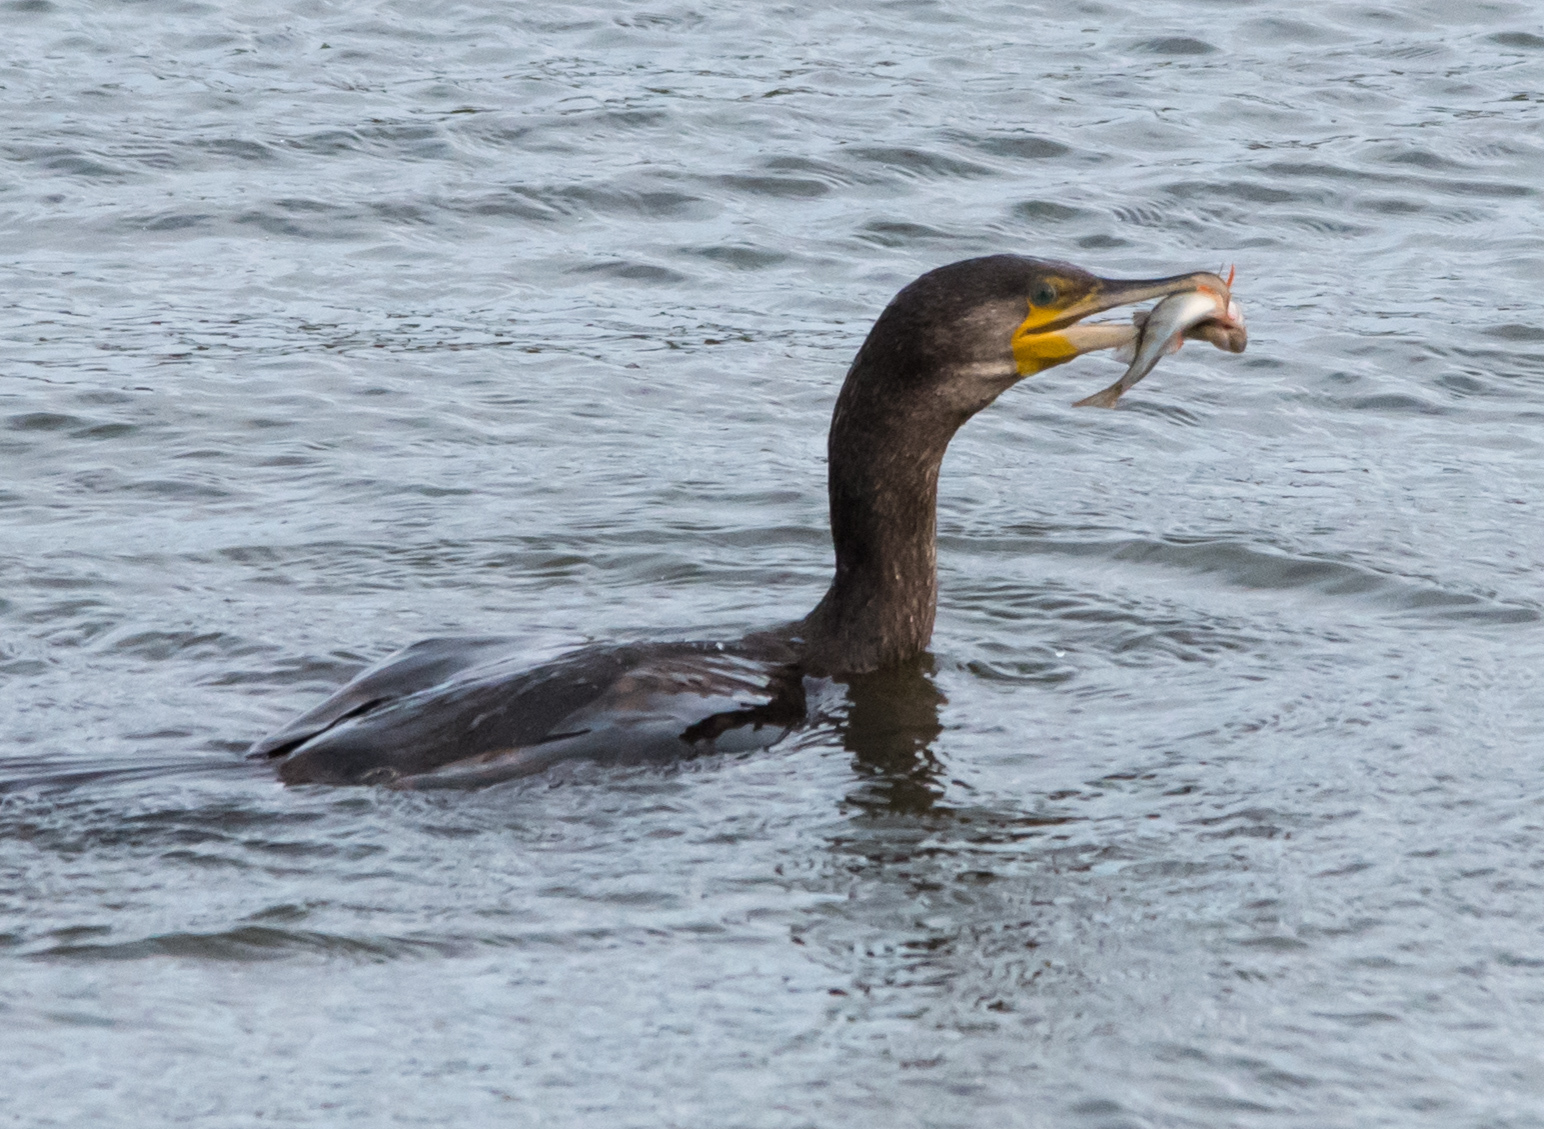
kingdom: Animalia
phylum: Chordata
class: Aves
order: Suliformes
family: Phalacrocoracidae
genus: Phalacrocorax
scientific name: Phalacrocorax carbo
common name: Great cormorant
